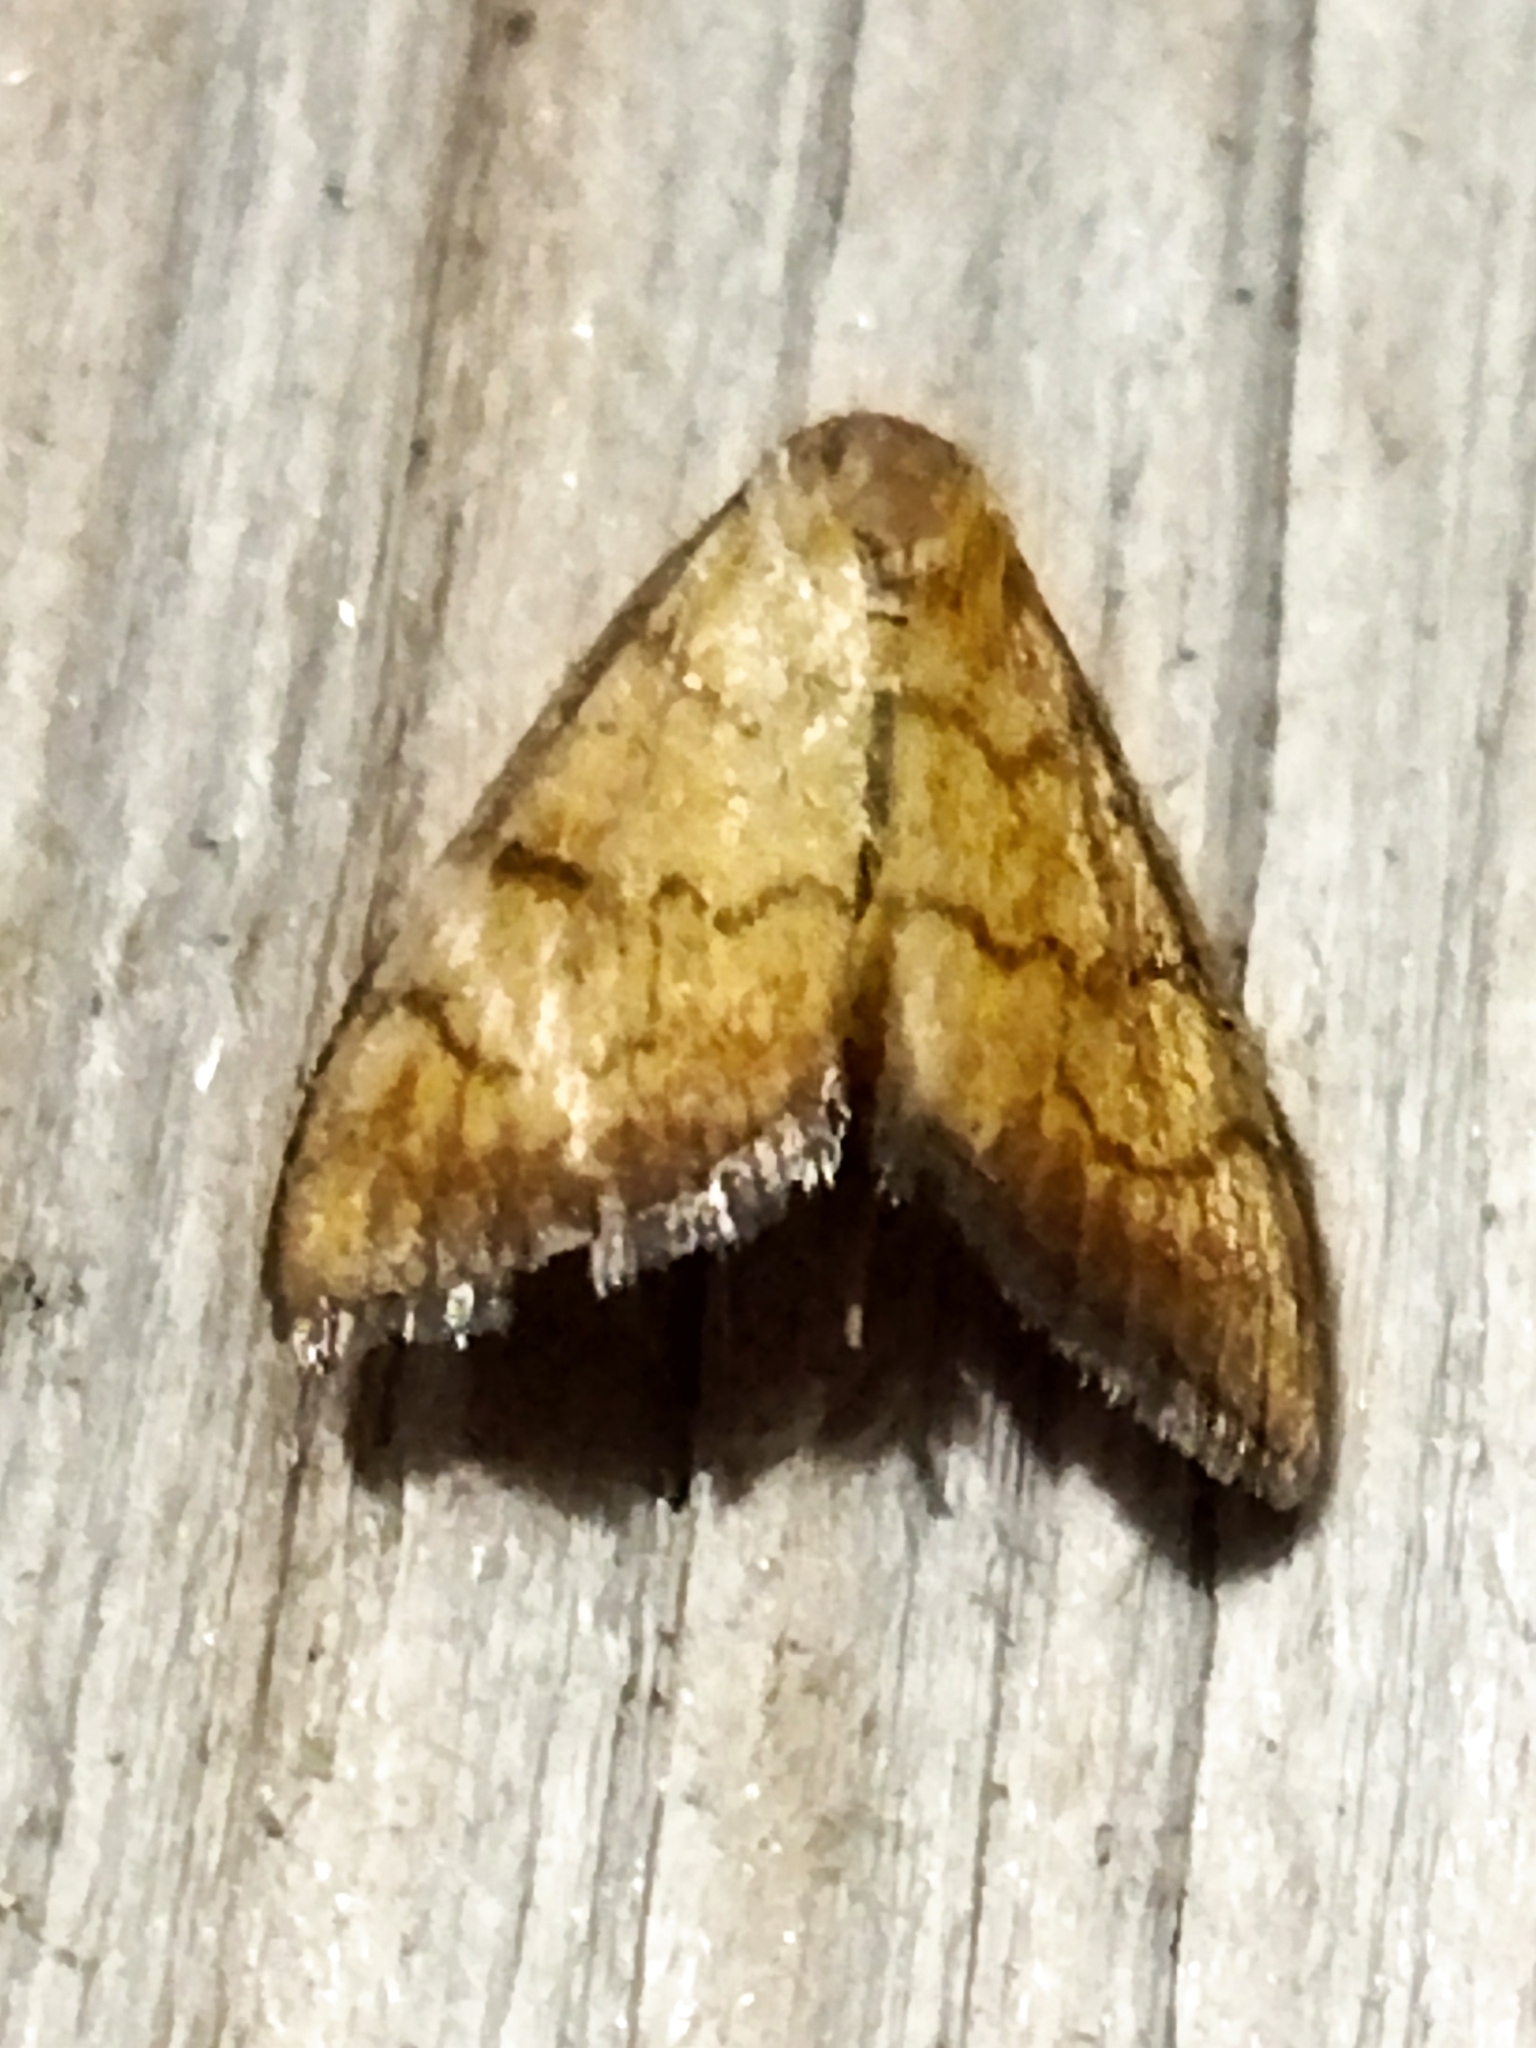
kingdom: Animalia
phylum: Arthropoda
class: Insecta
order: Lepidoptera
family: Crambidae
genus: Ecpyrrhorrhoe
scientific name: Ecpyrrhorrhoe rubiginalis
